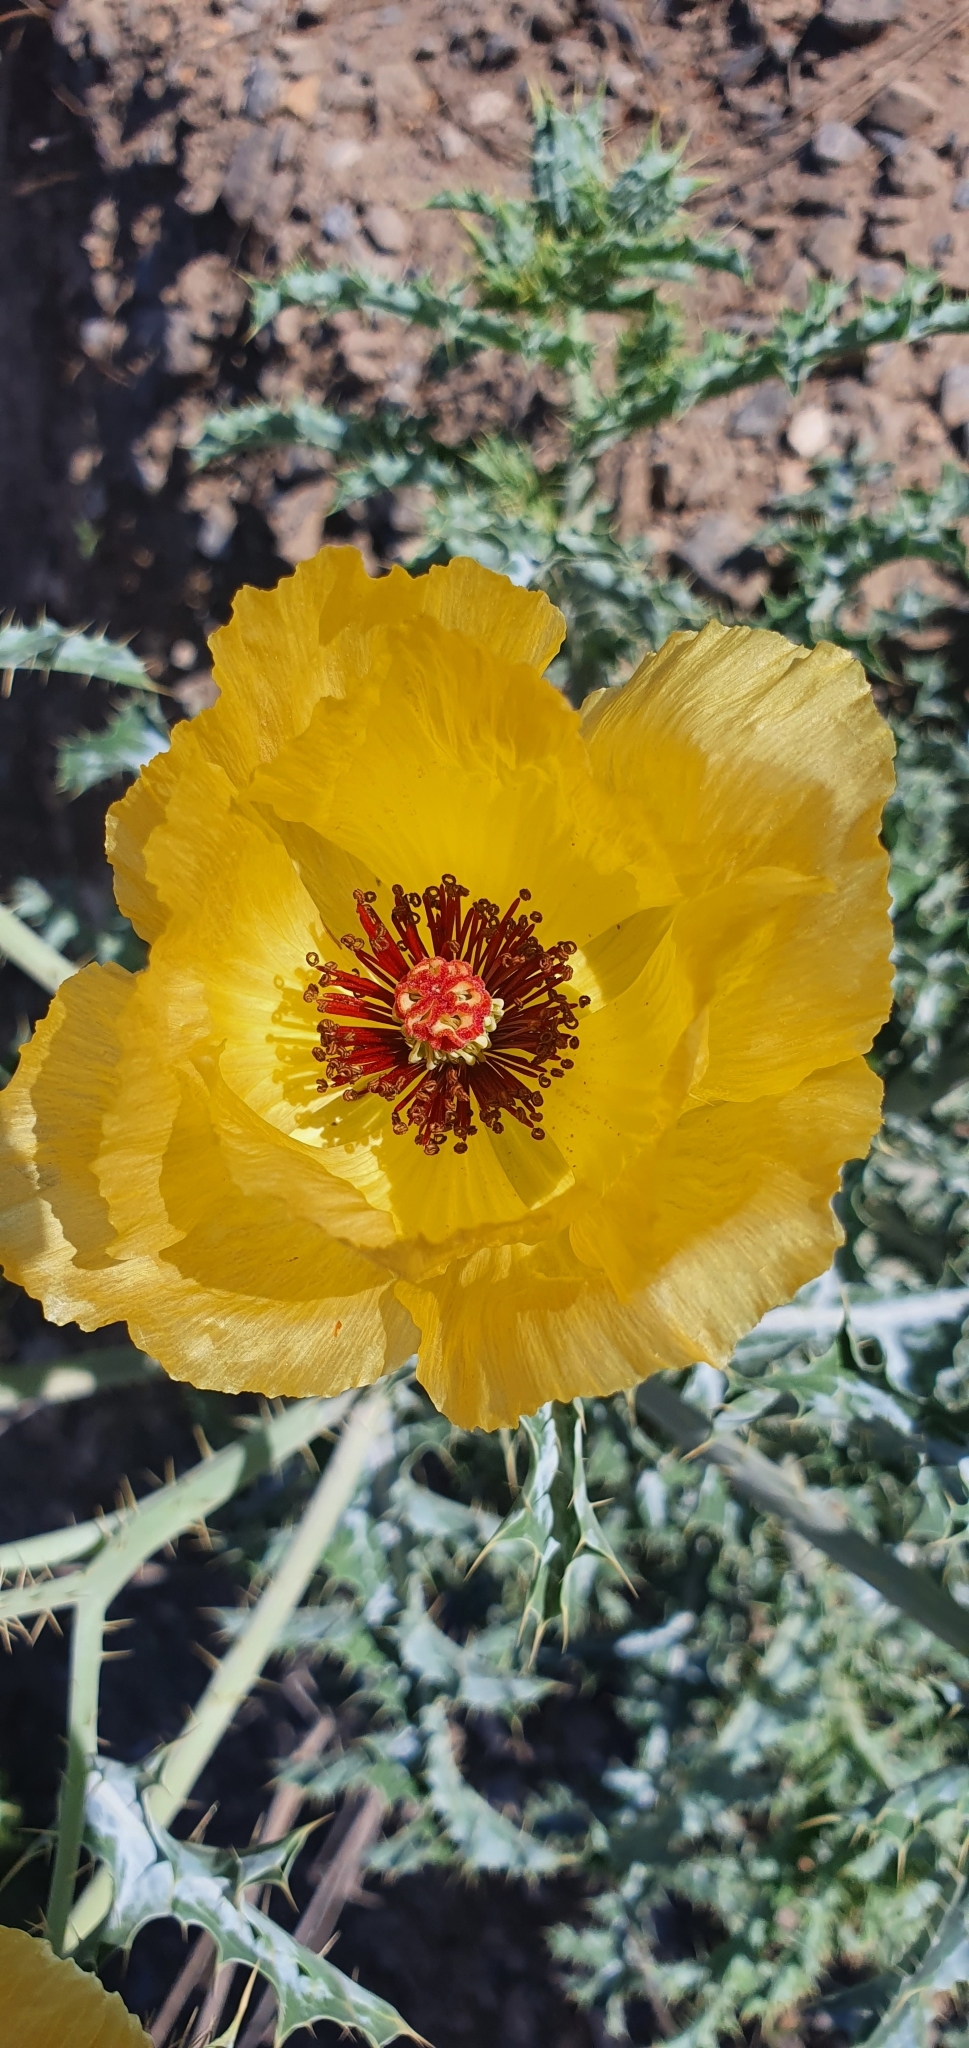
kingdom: Plantae
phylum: Tracheophyta
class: Magnoliopsida
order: Ranunculales
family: Papaveraceae
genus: Argemone
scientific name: Argemone aenea
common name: Golden prickly-poppy
